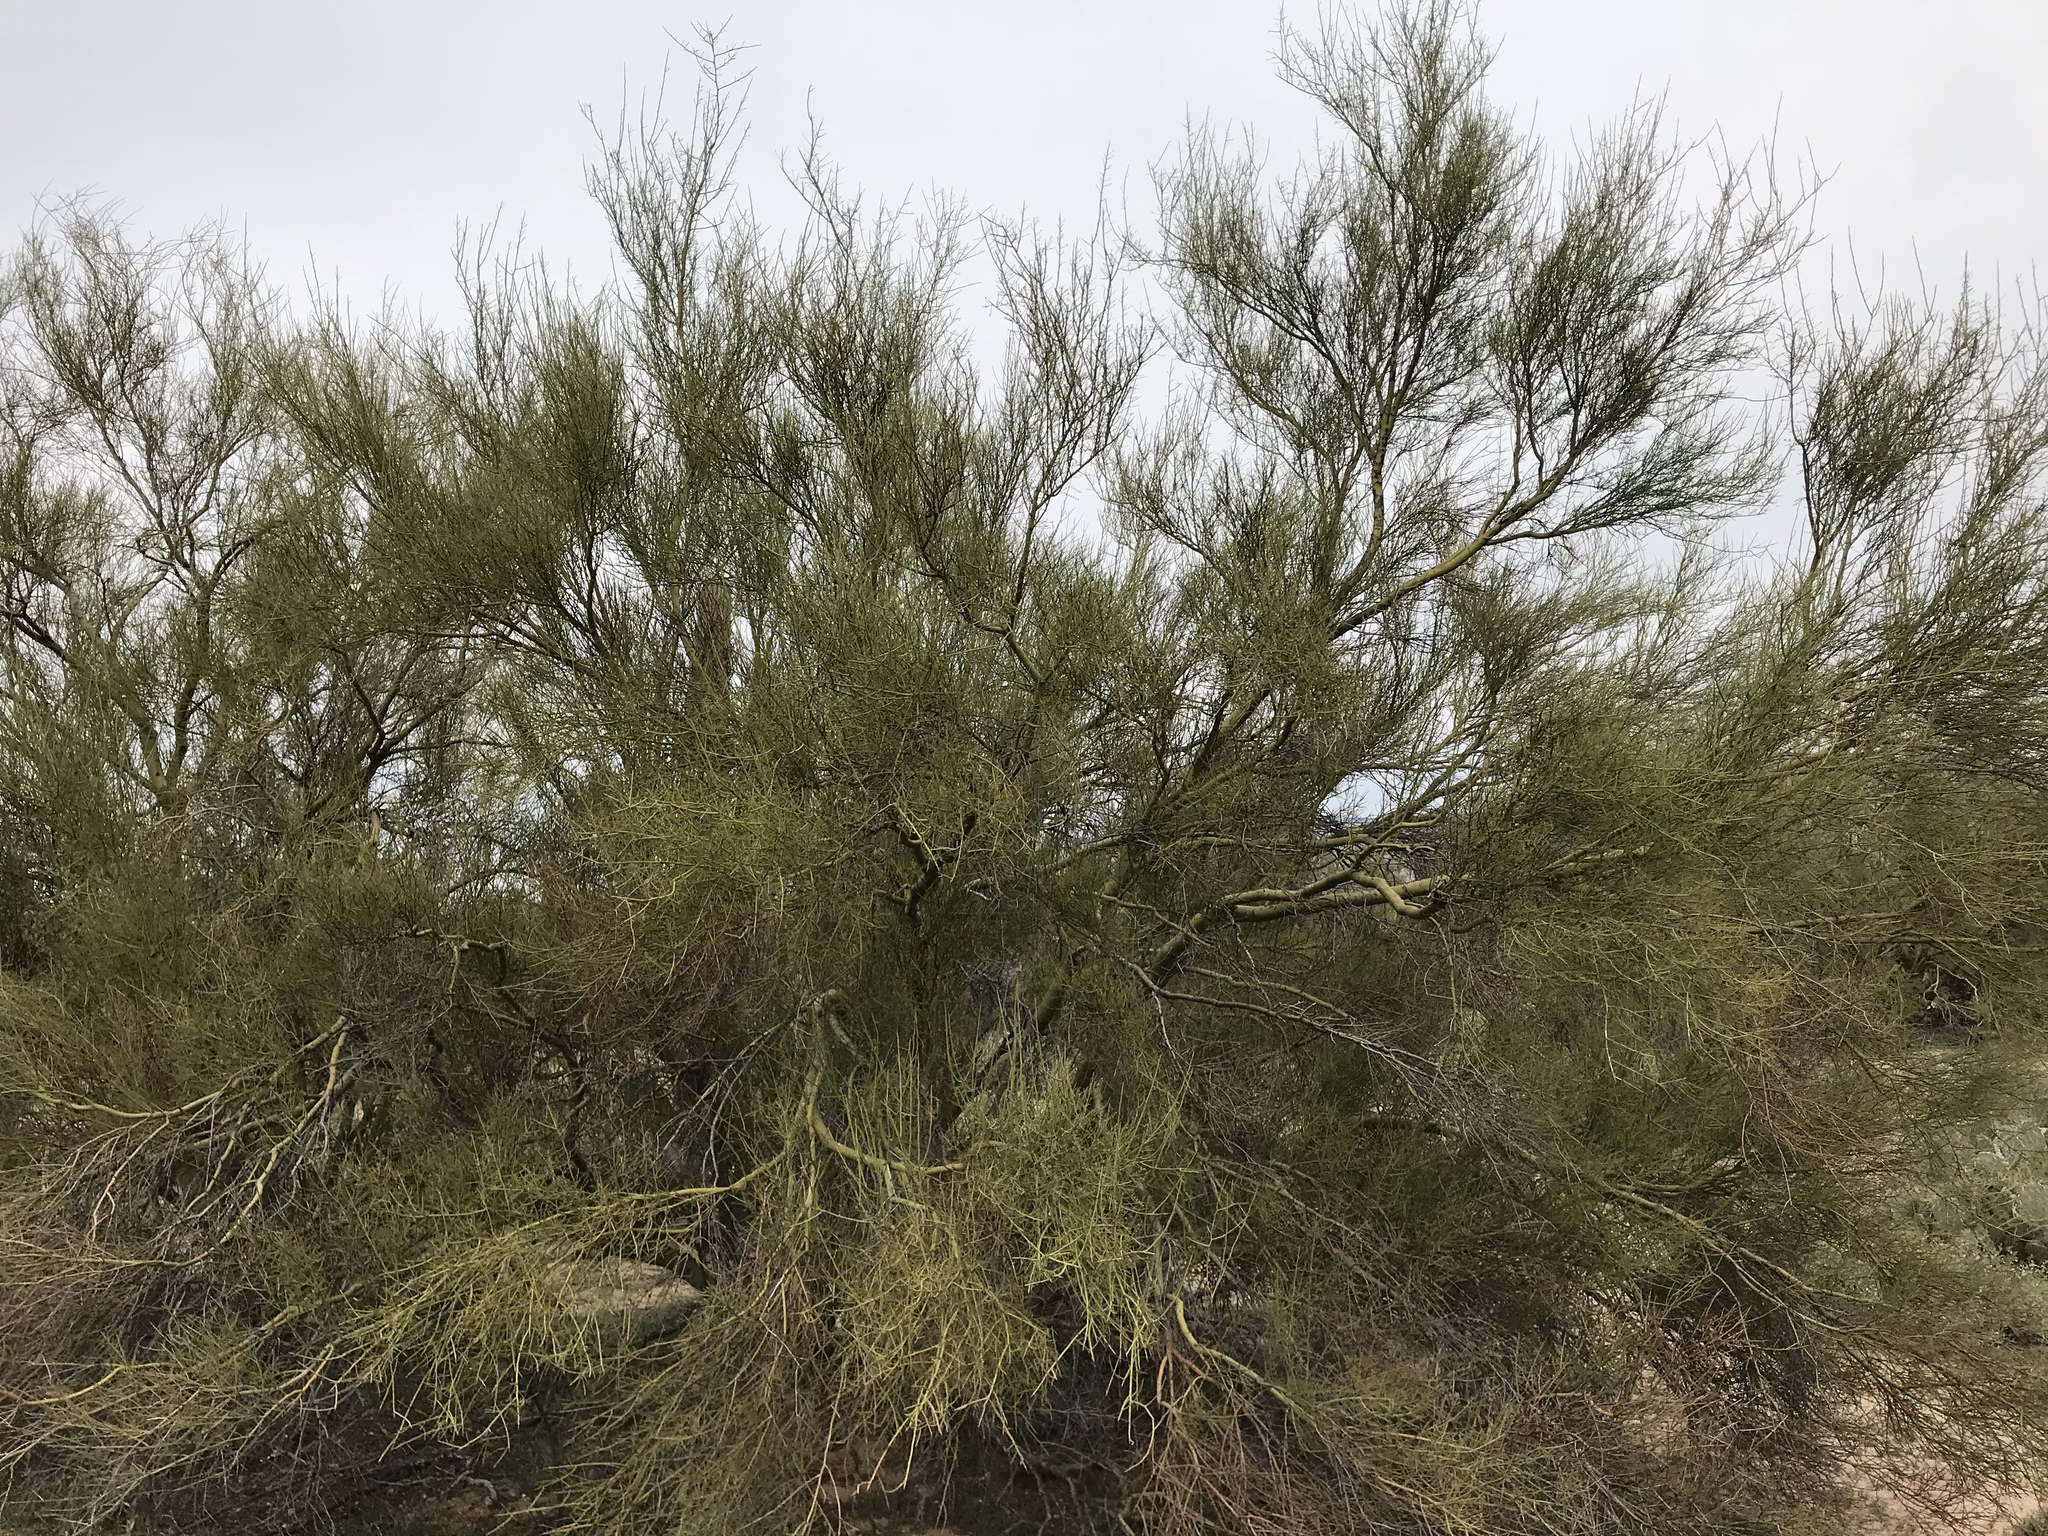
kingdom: Plantae
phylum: Tracheophyta
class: Magnoliopsida
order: Fabales
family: Fabaceae
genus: Parkinsonia
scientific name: Parkinsonia microphylla
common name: Yellow paloverde
